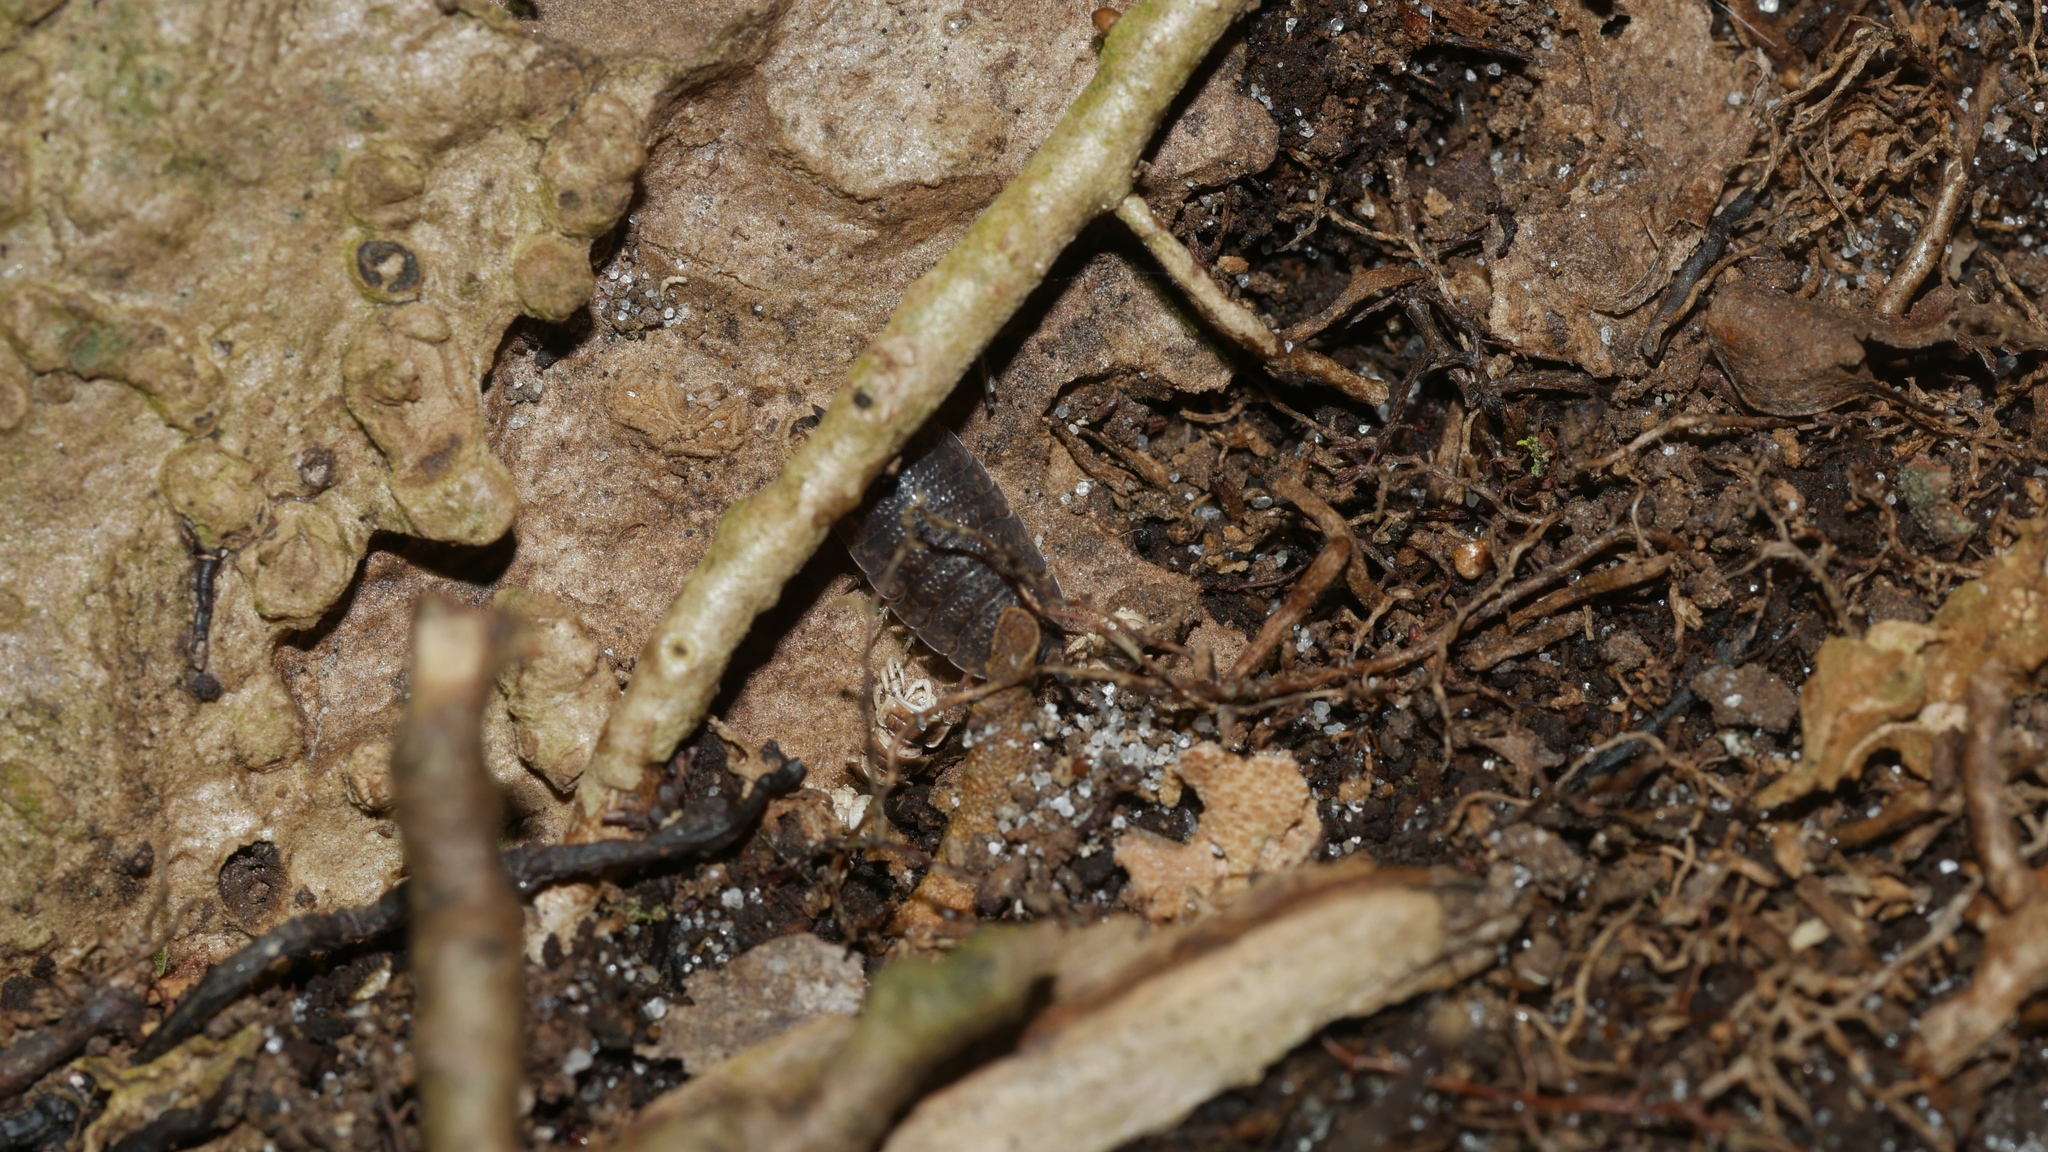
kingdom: Animalia
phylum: Arthropoda
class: Malacostraca
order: Isopoda
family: Porcellionidae
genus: Porcellio
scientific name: Porcellio scaber
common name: Common rough woodlouse
